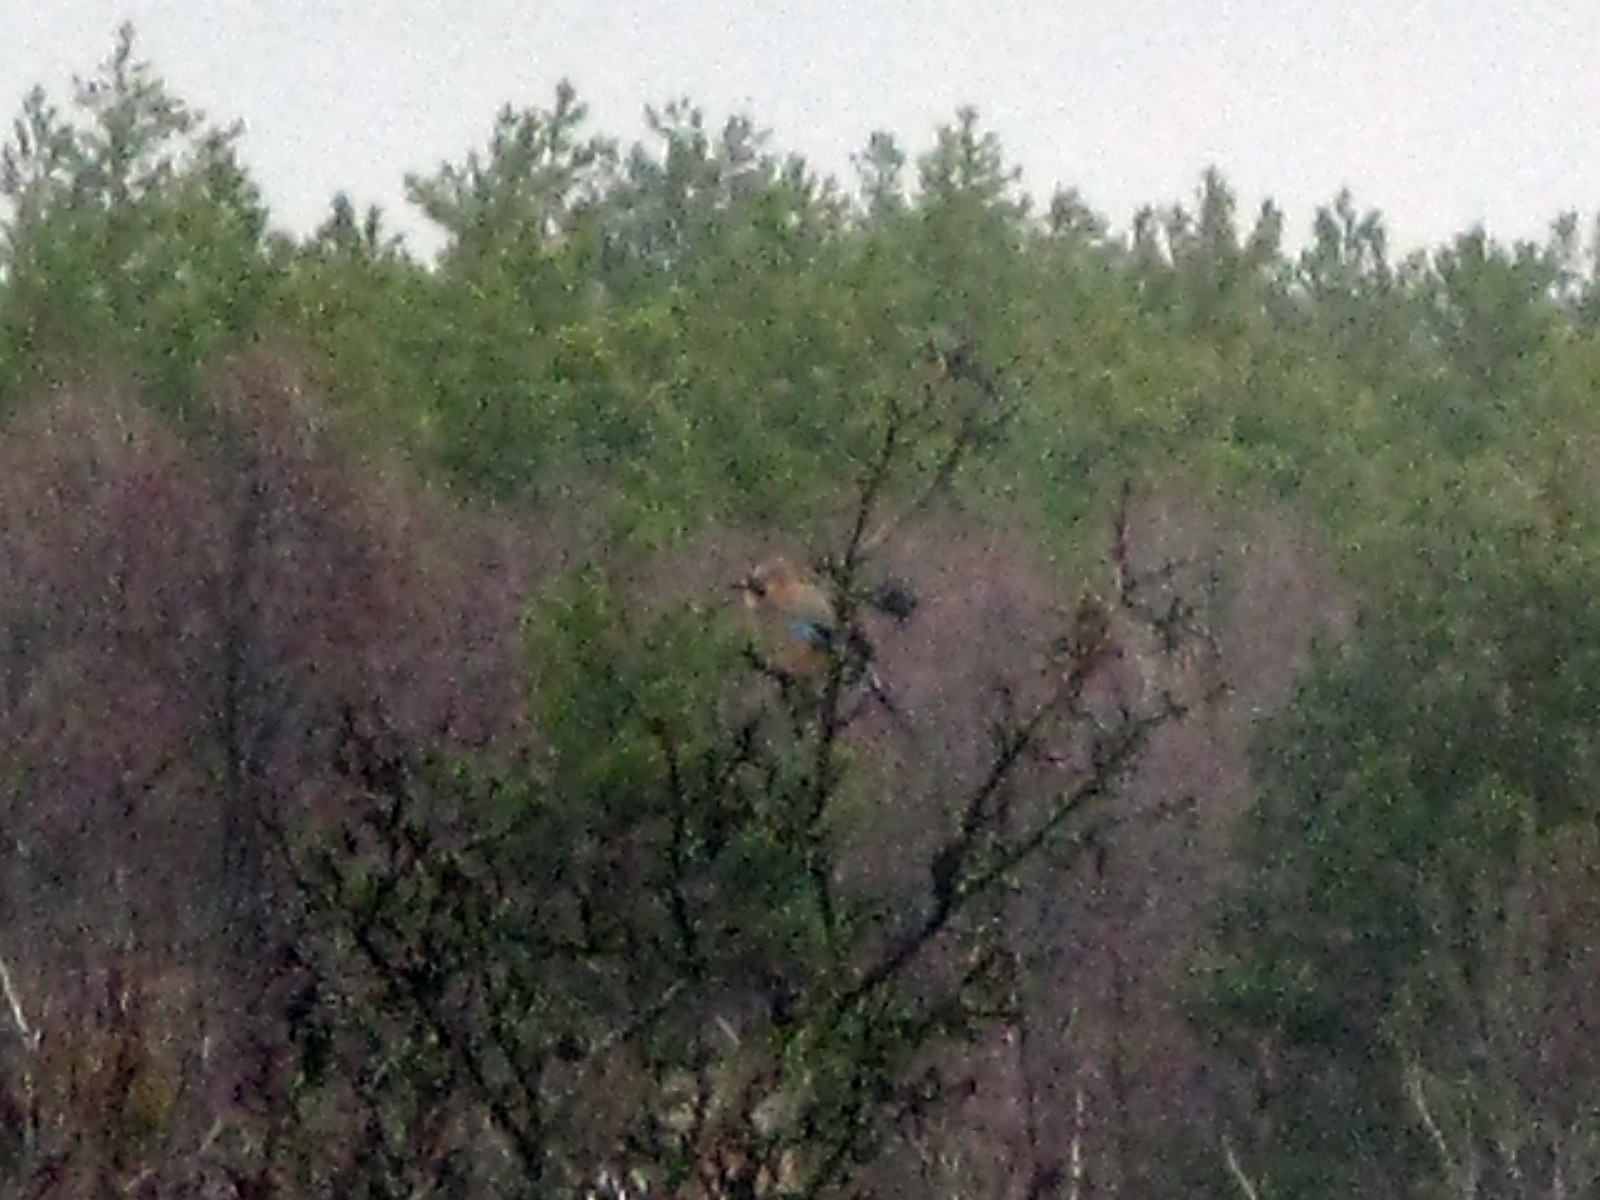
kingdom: Animalia
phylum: Chordata
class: Aves
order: Passeriformes
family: Corvidae
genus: Garrulus
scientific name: Garrulus glandarius
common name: Eurasian jay
